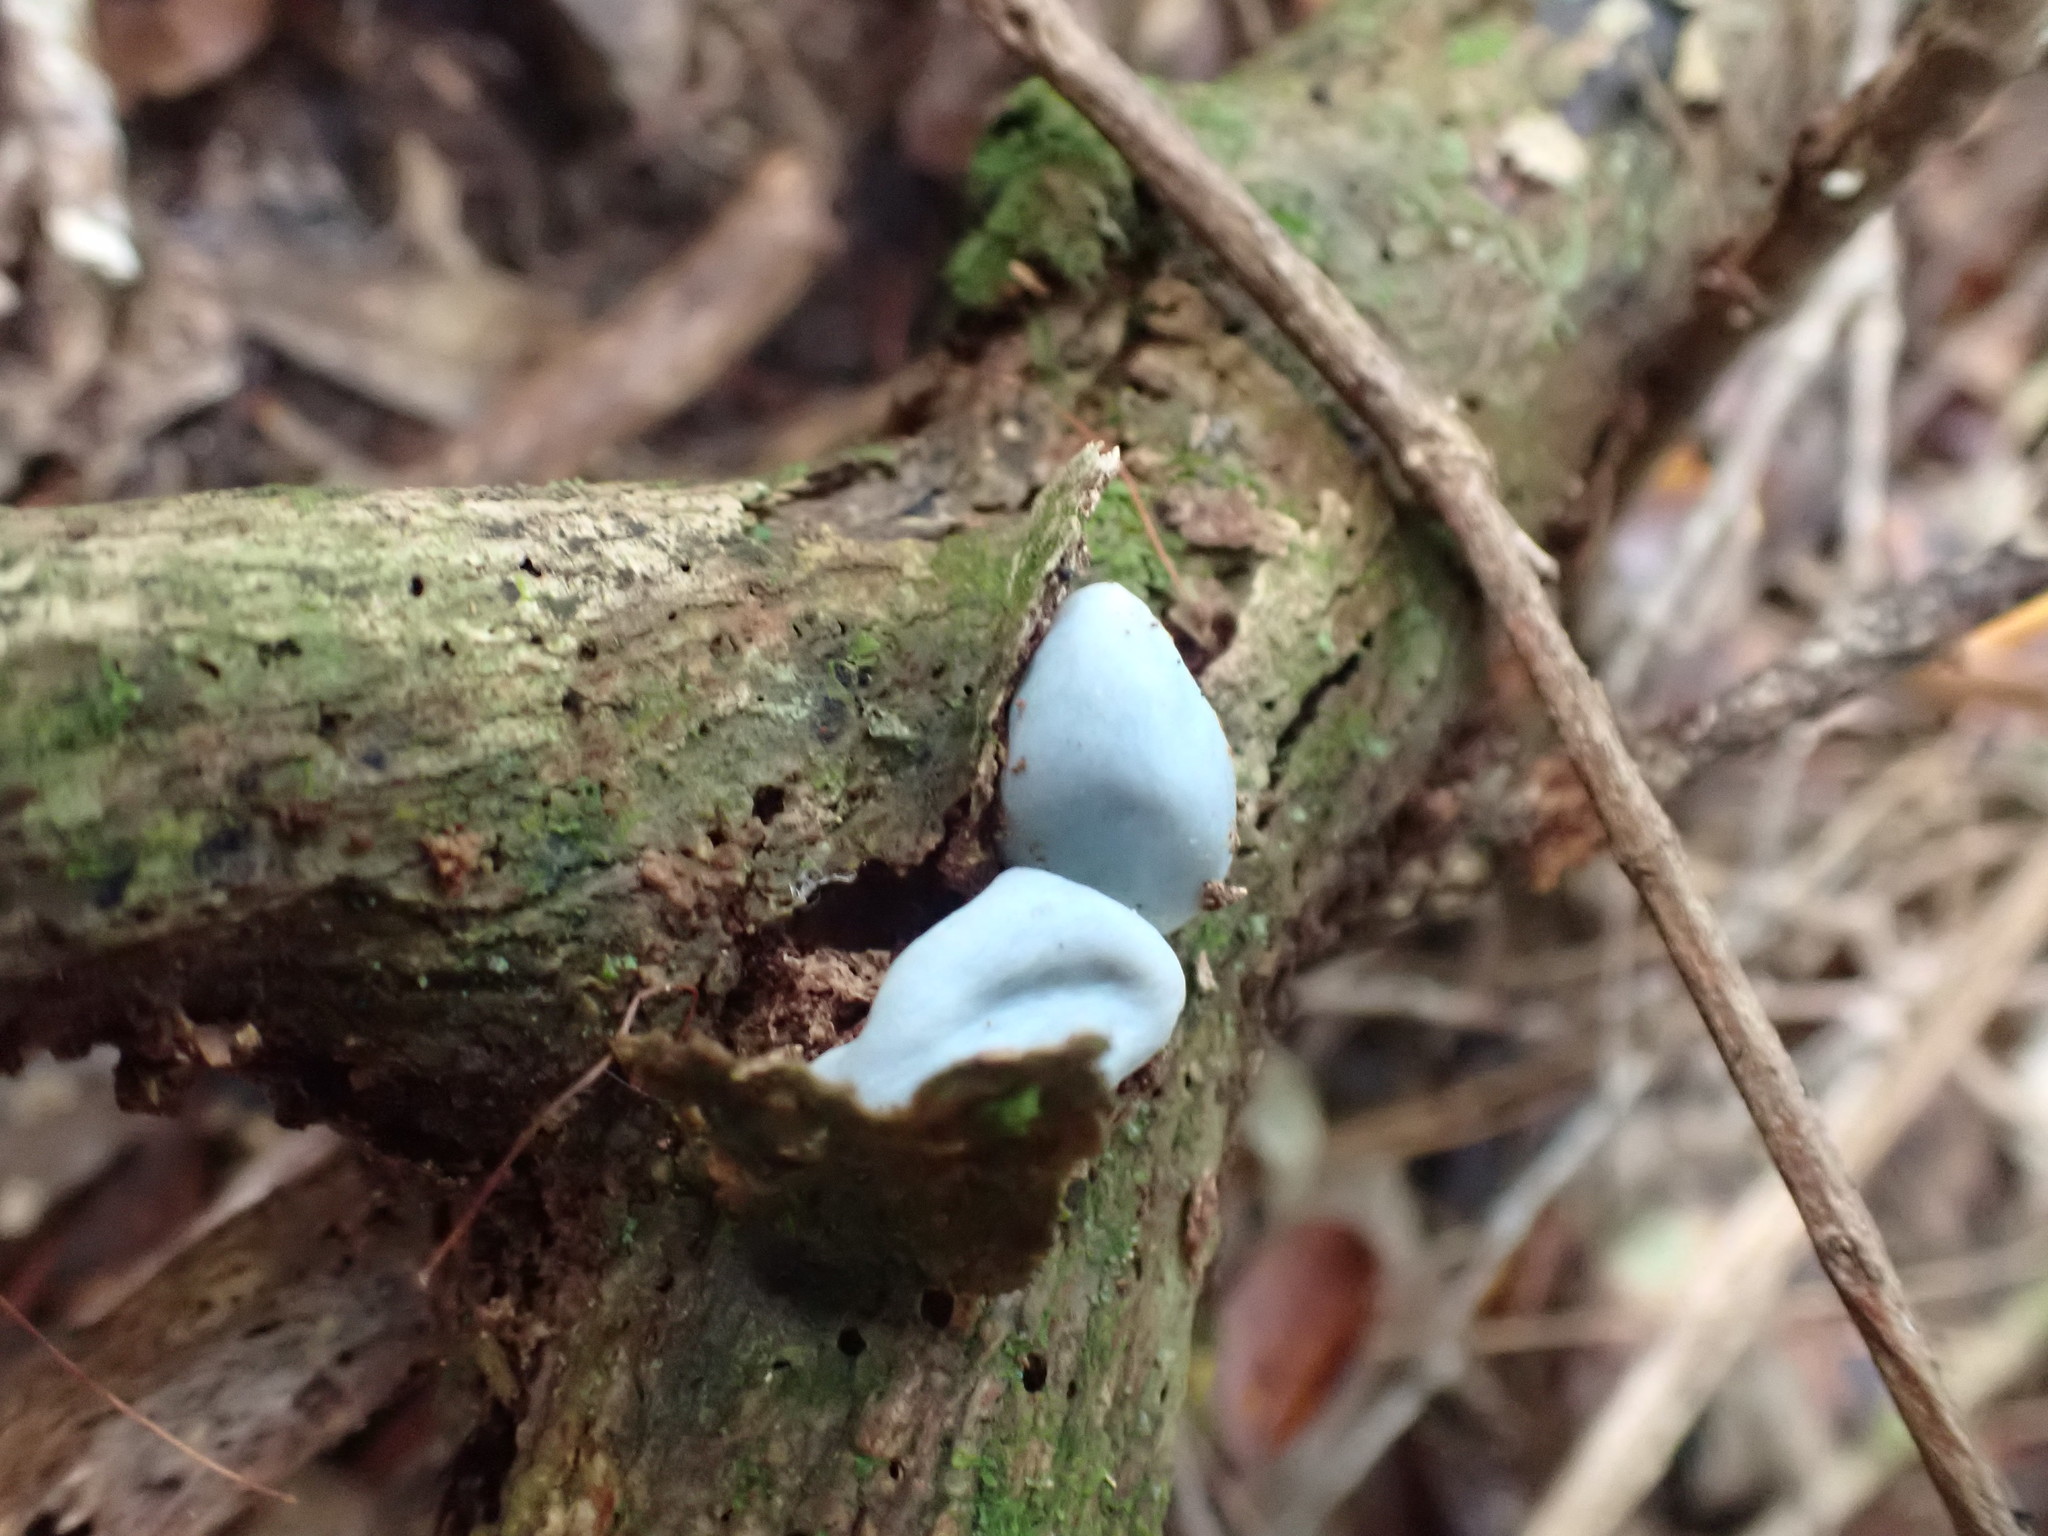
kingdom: Fungi
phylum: Basidiomycota
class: Agaricomycetes
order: Agaricales
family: Agaricaceae
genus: Clavogaster
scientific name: Clavogaster virescens
